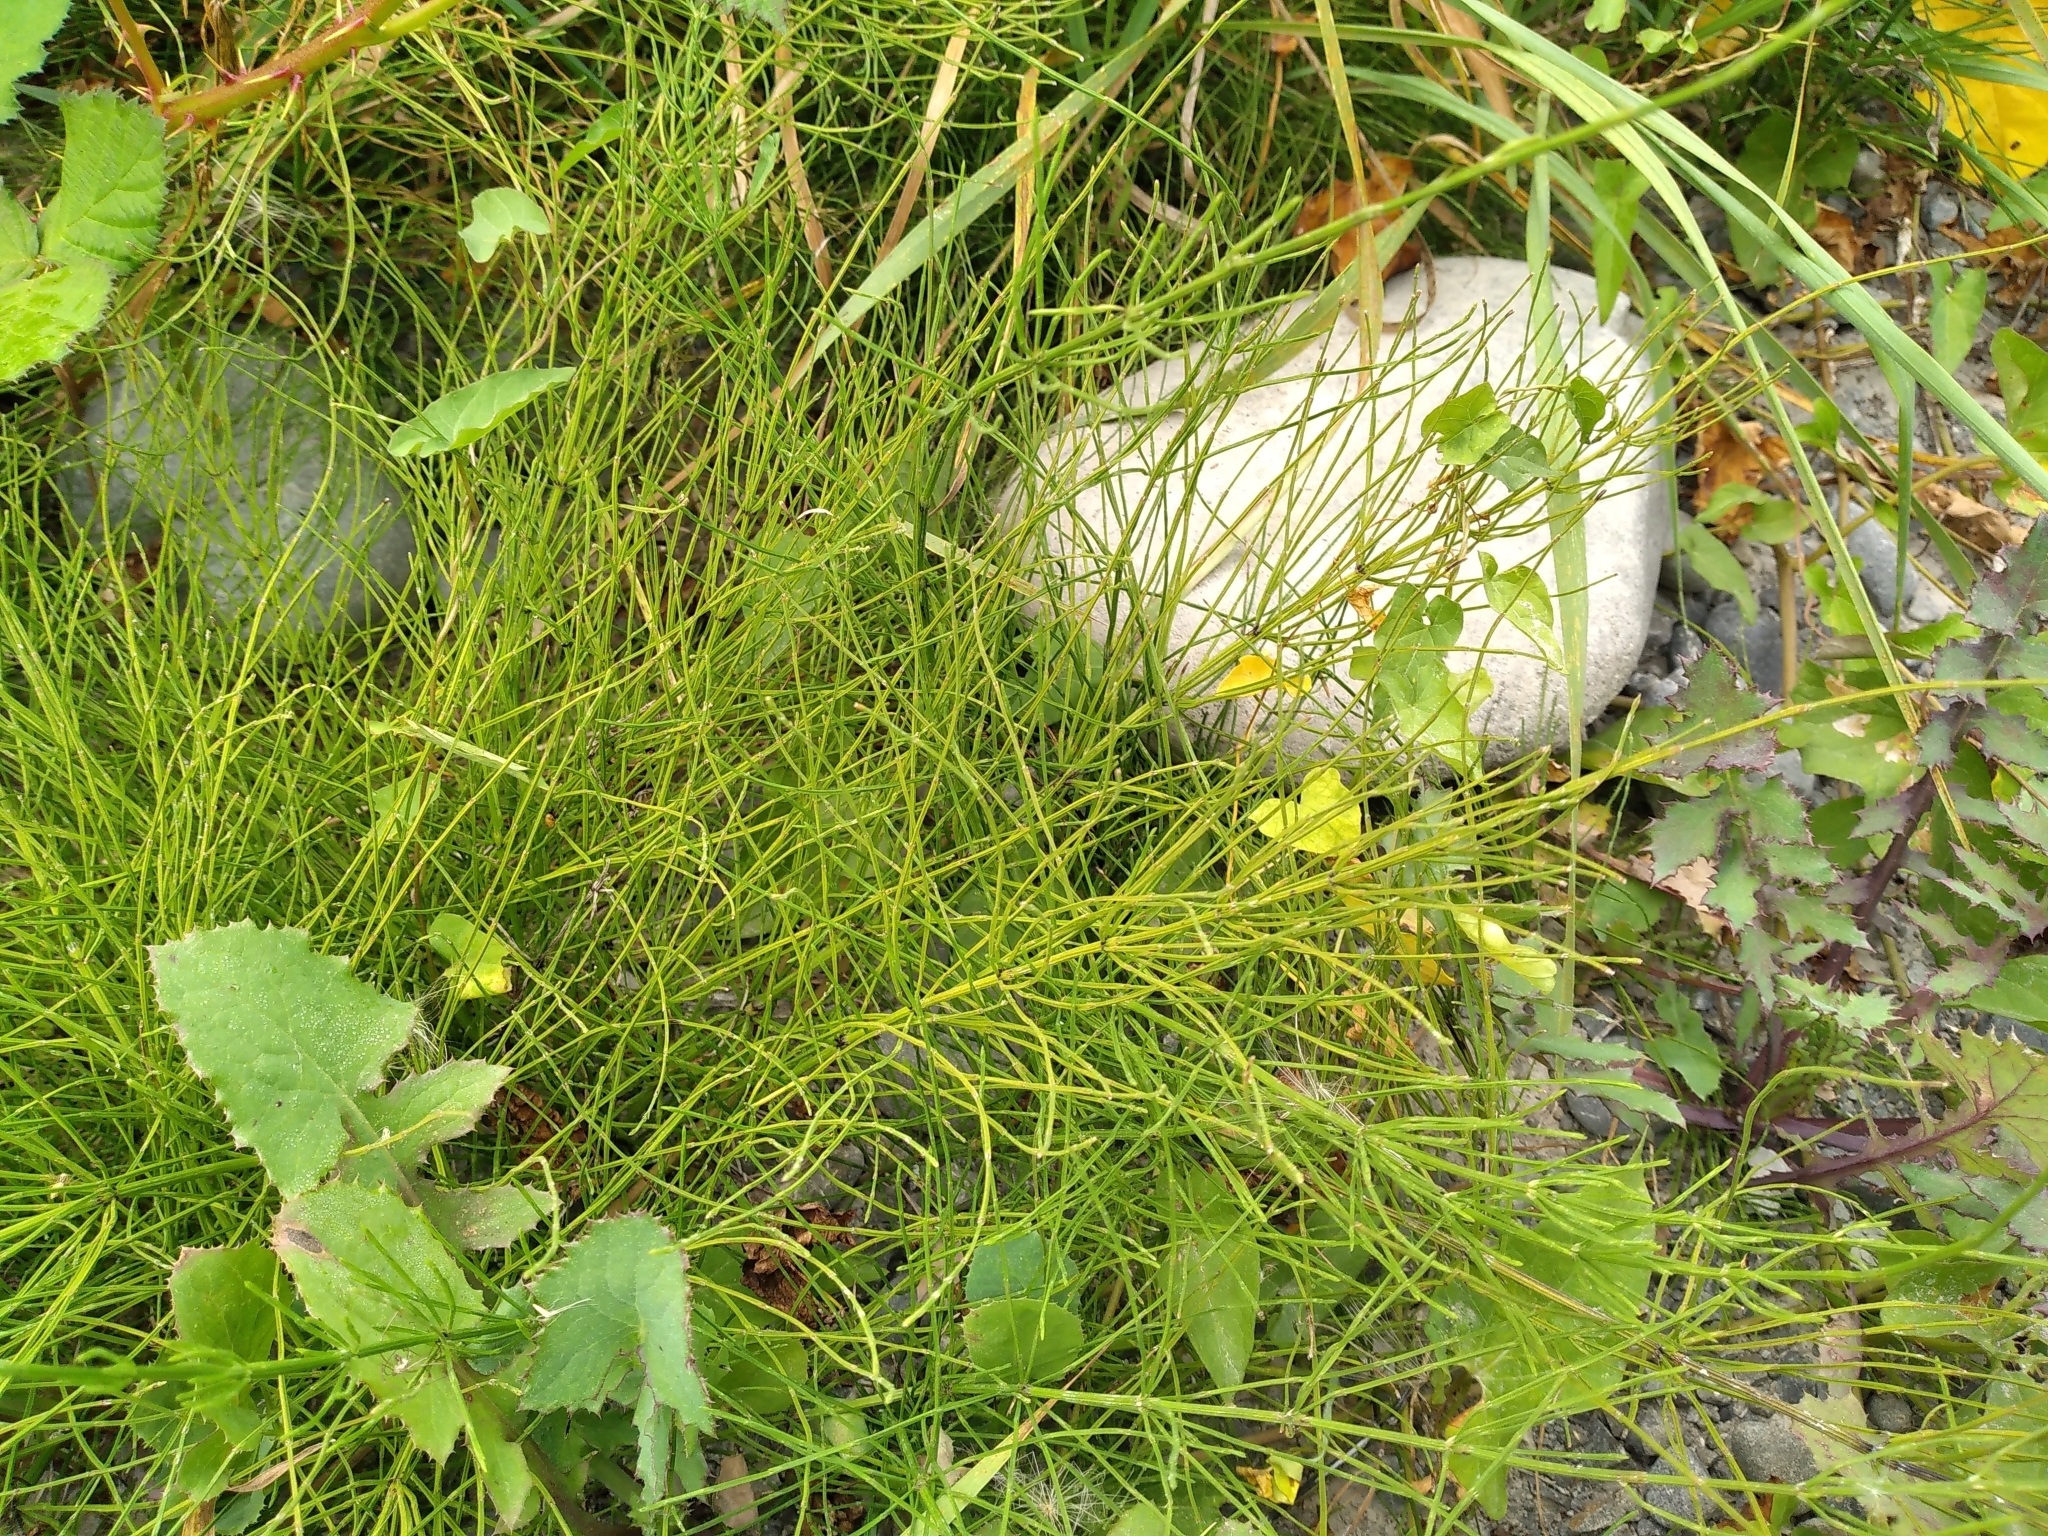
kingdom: Plantae
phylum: Tracheophyta
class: Polypodiopsida
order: Equisetales
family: Equisetaceae
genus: Equisetum
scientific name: Equisetum arvense
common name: Field horsetail
